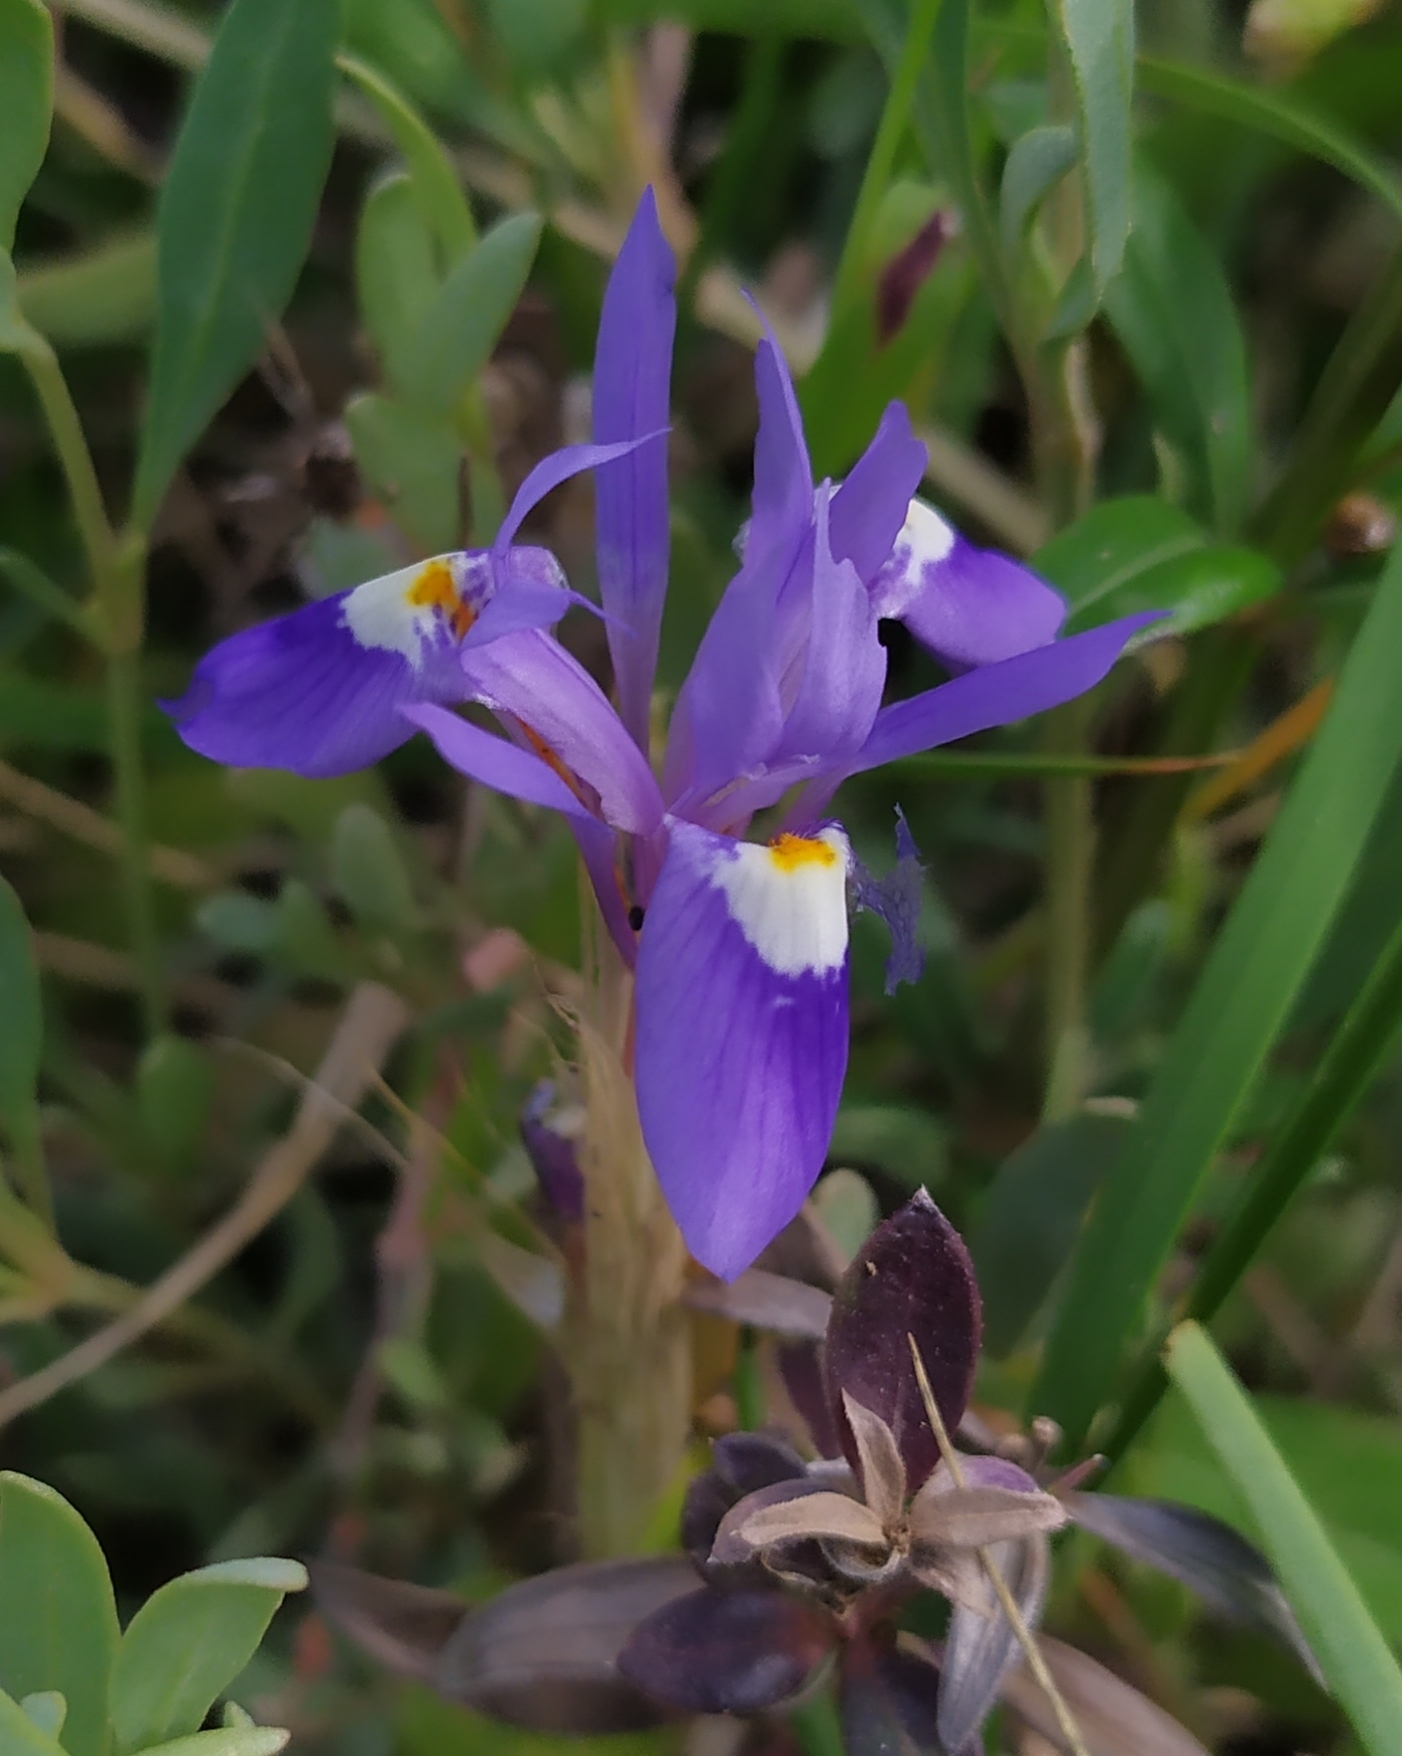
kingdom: Plantae
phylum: Tracheophyta
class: Liliopsida
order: Asparagales
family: Iridaceae
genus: Moraea
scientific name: Moraea sisyrinchium
